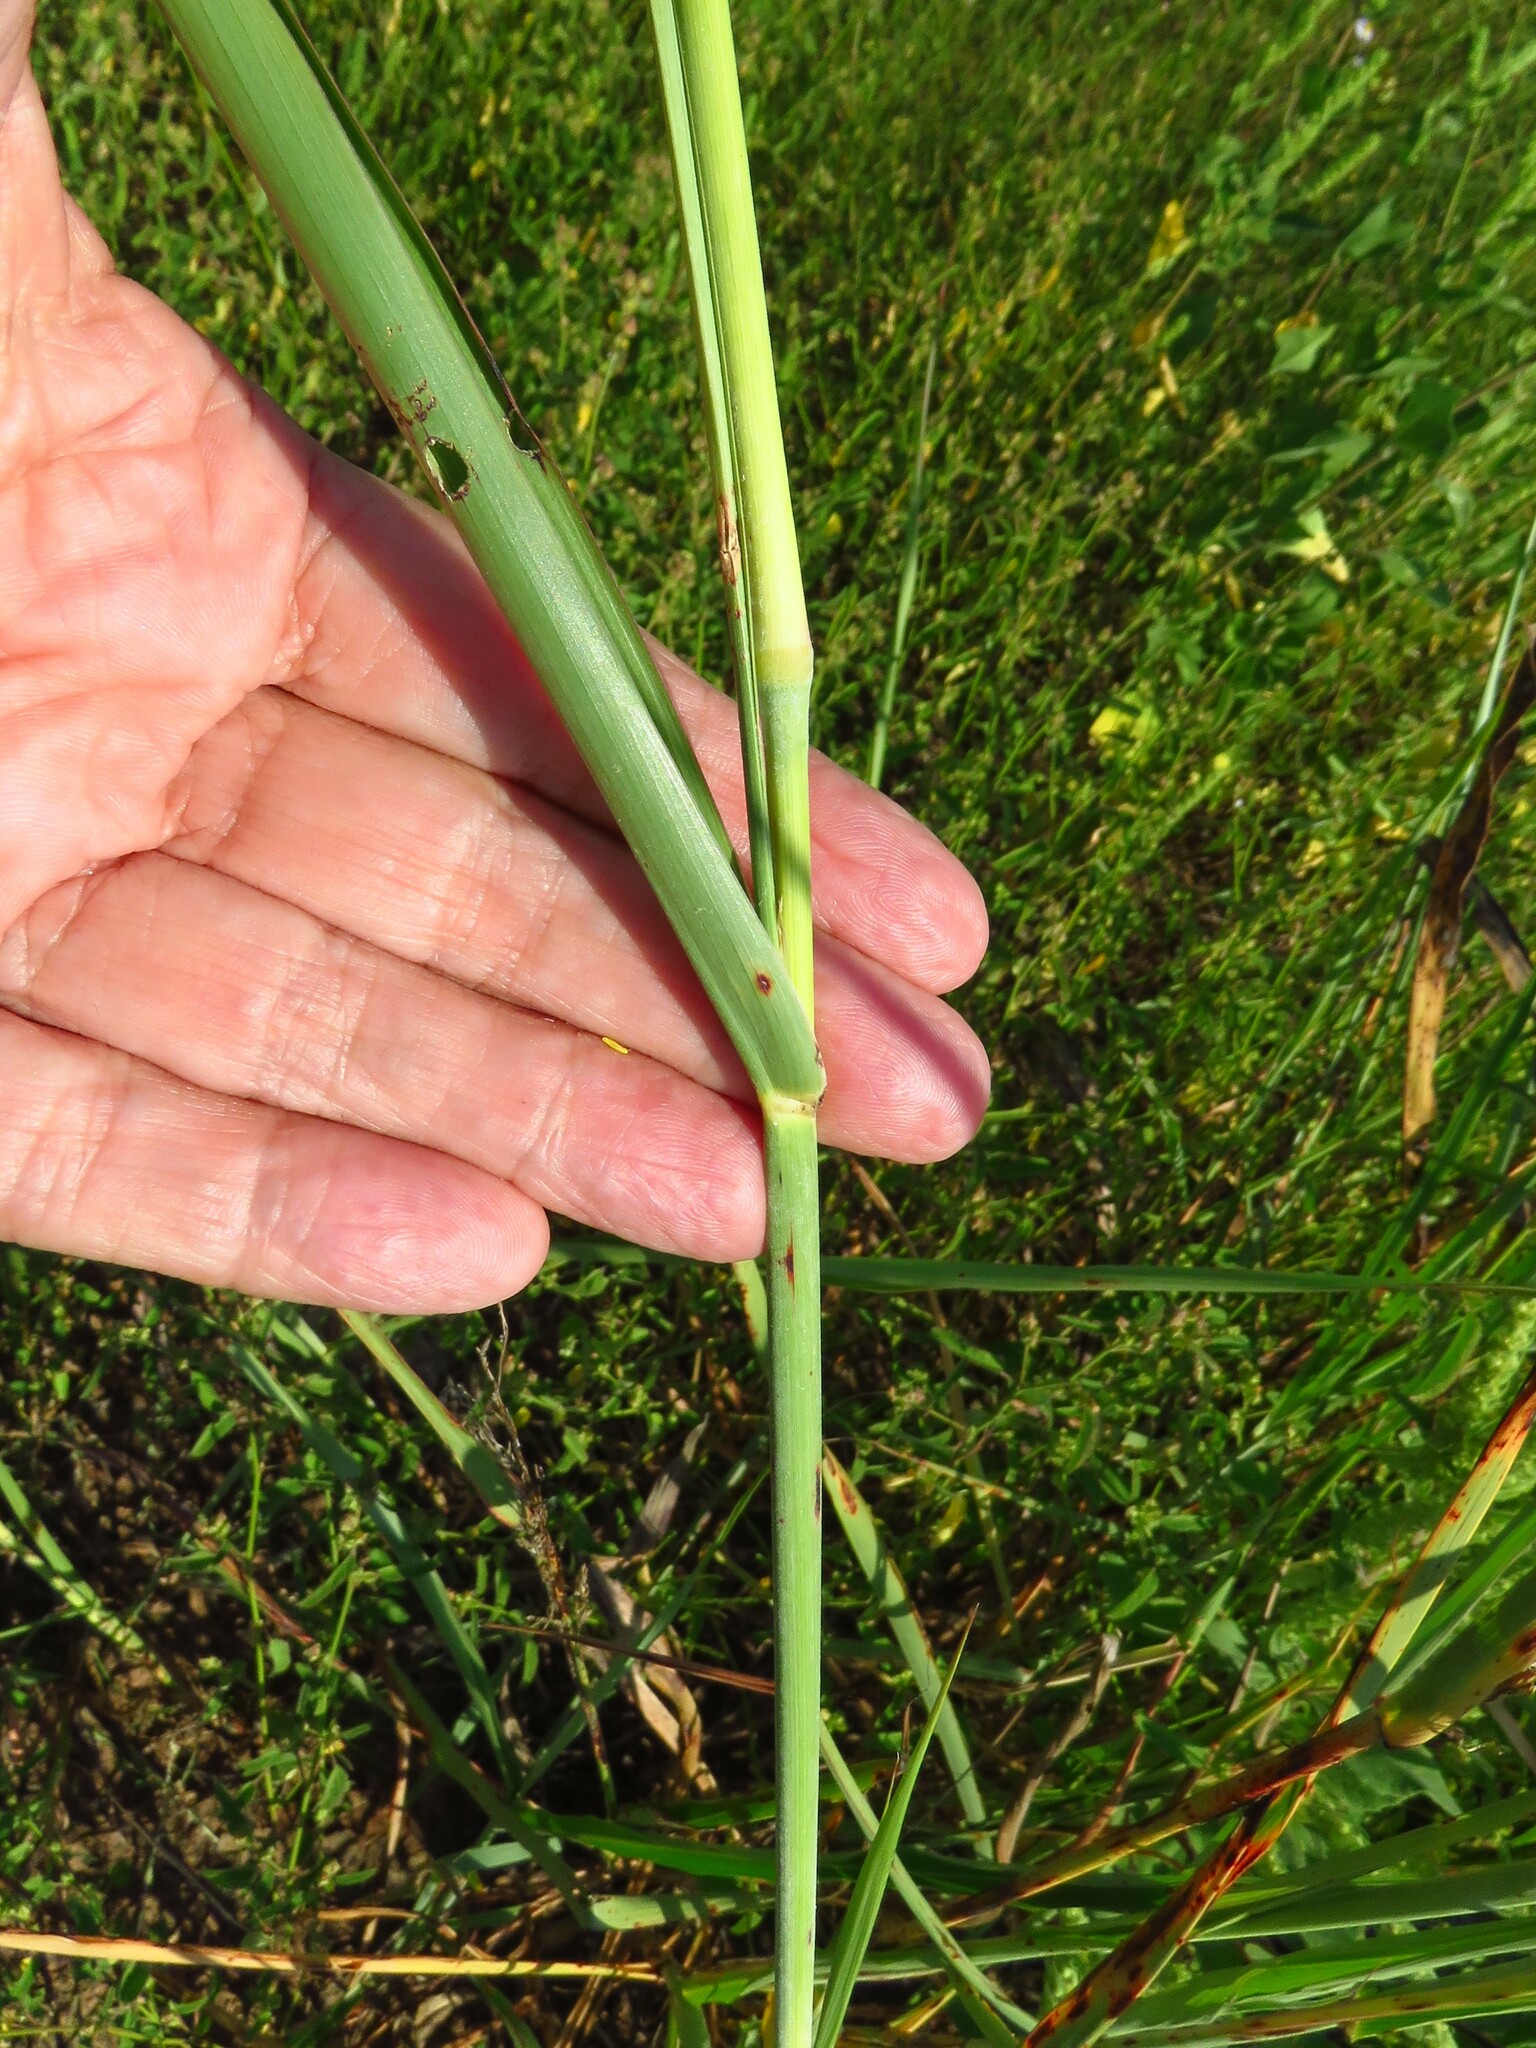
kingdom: Plantae
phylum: Tracheophyta
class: Liliopsida
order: Poales
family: Poaceae
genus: Sorghum
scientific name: Sorghum halepense
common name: Johnson-grass
